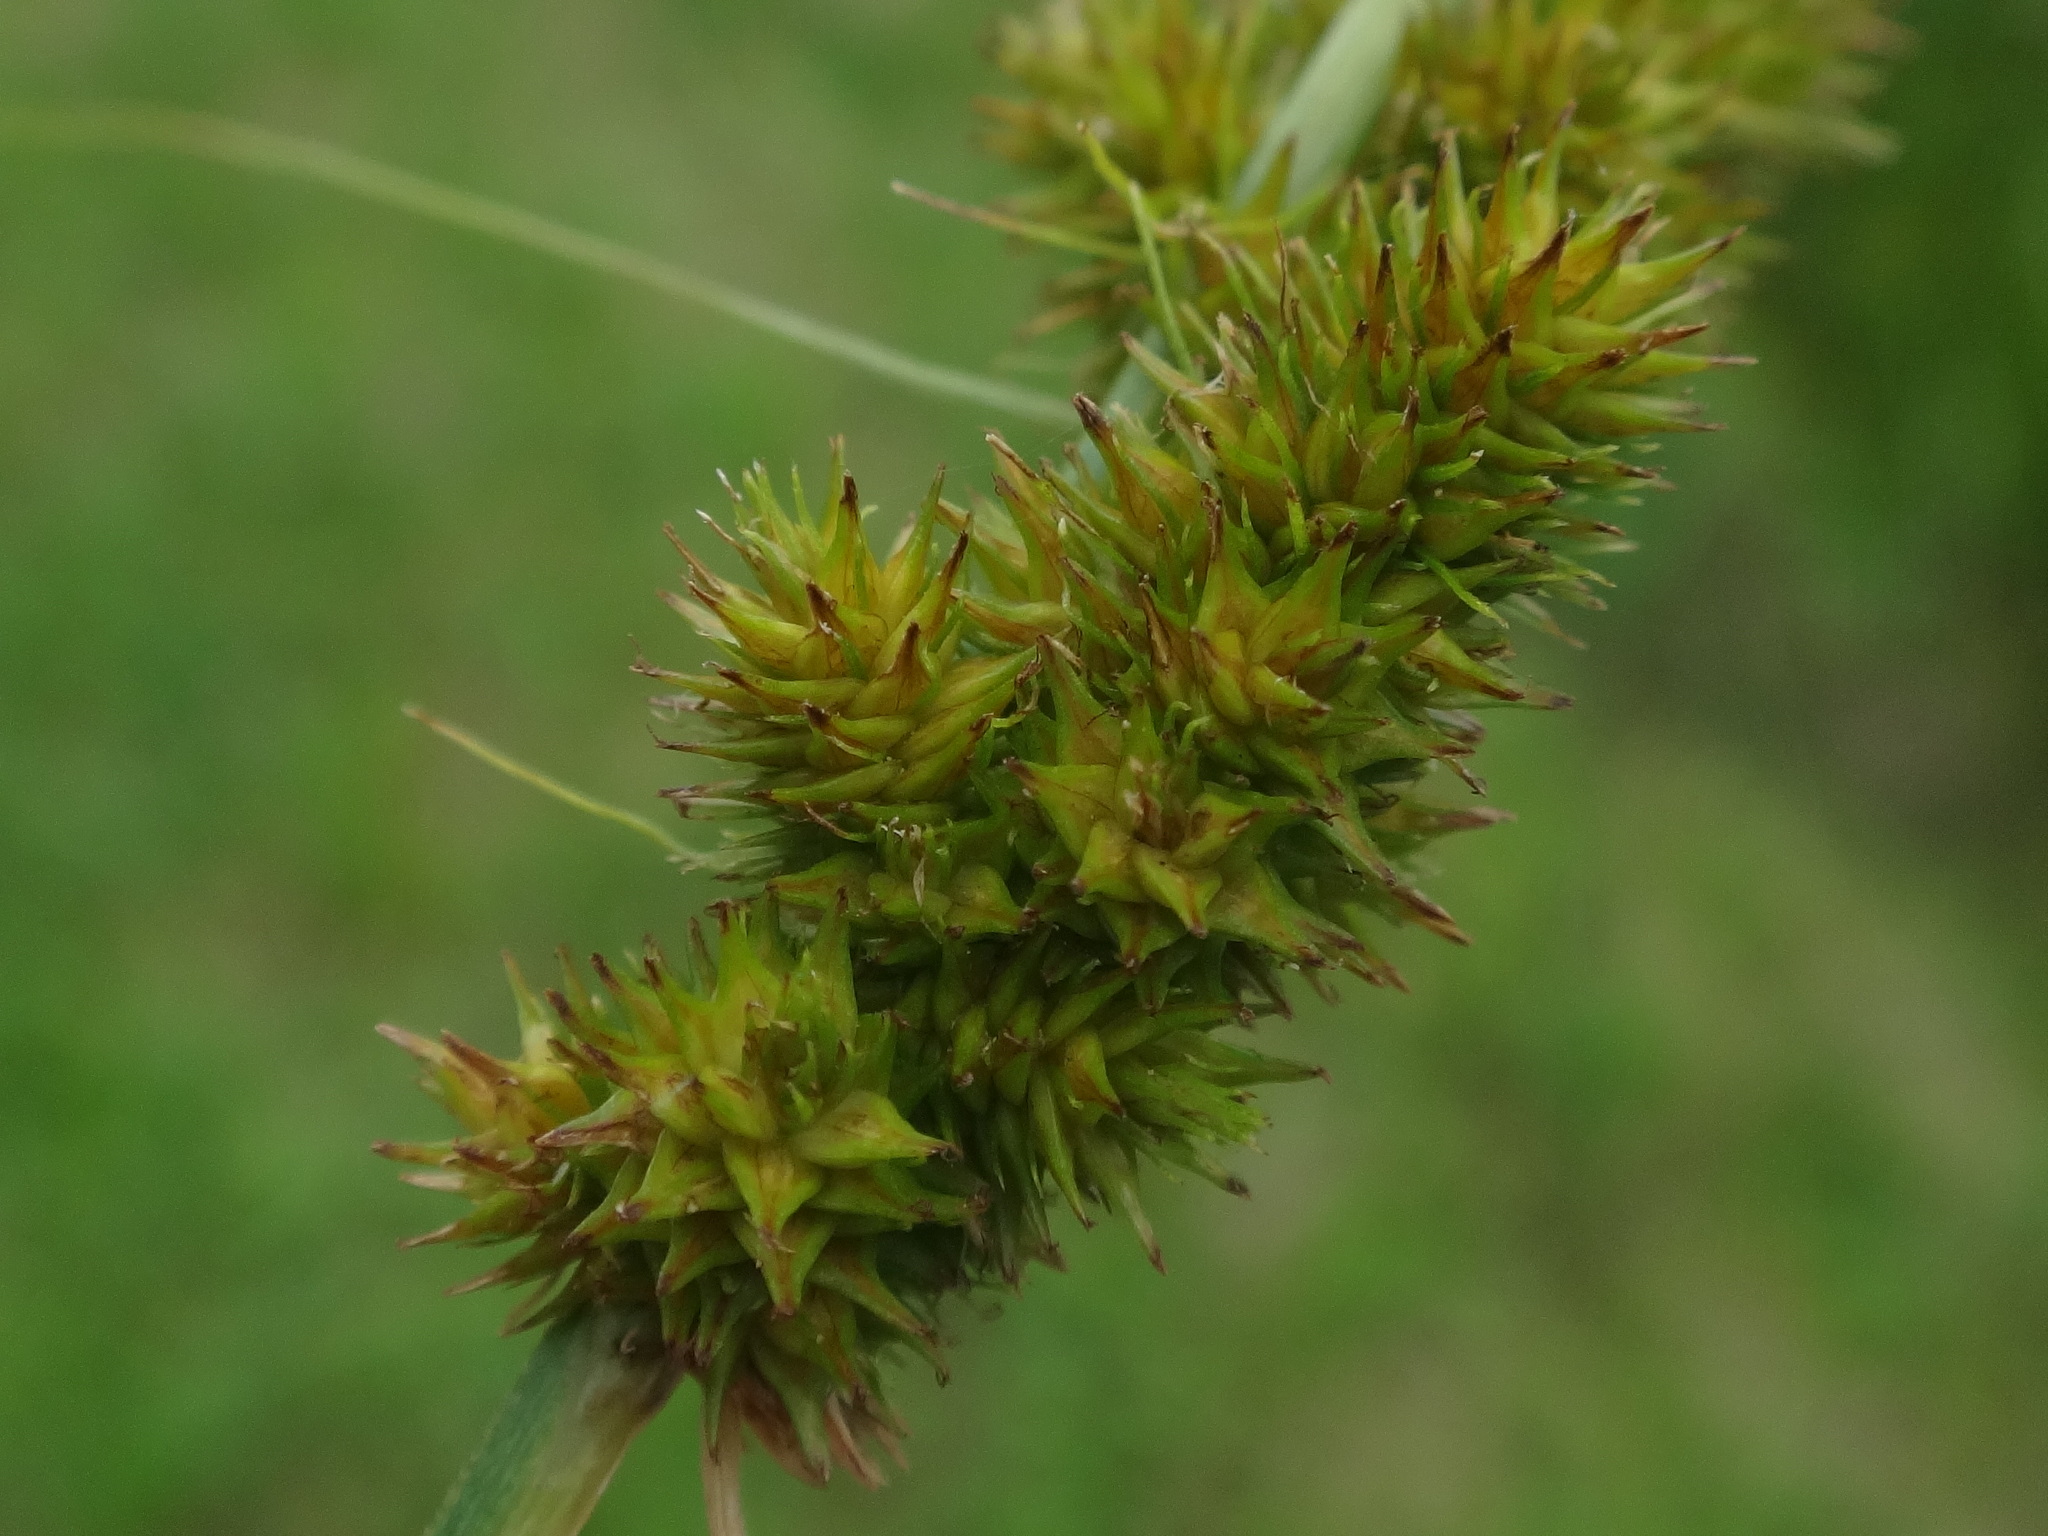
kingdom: Plantae
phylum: Tracheophyta
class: Liliopsida
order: Poales
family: Cyperaceae
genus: Carex
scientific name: Carex vulpinoidea
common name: American fox-sedge
